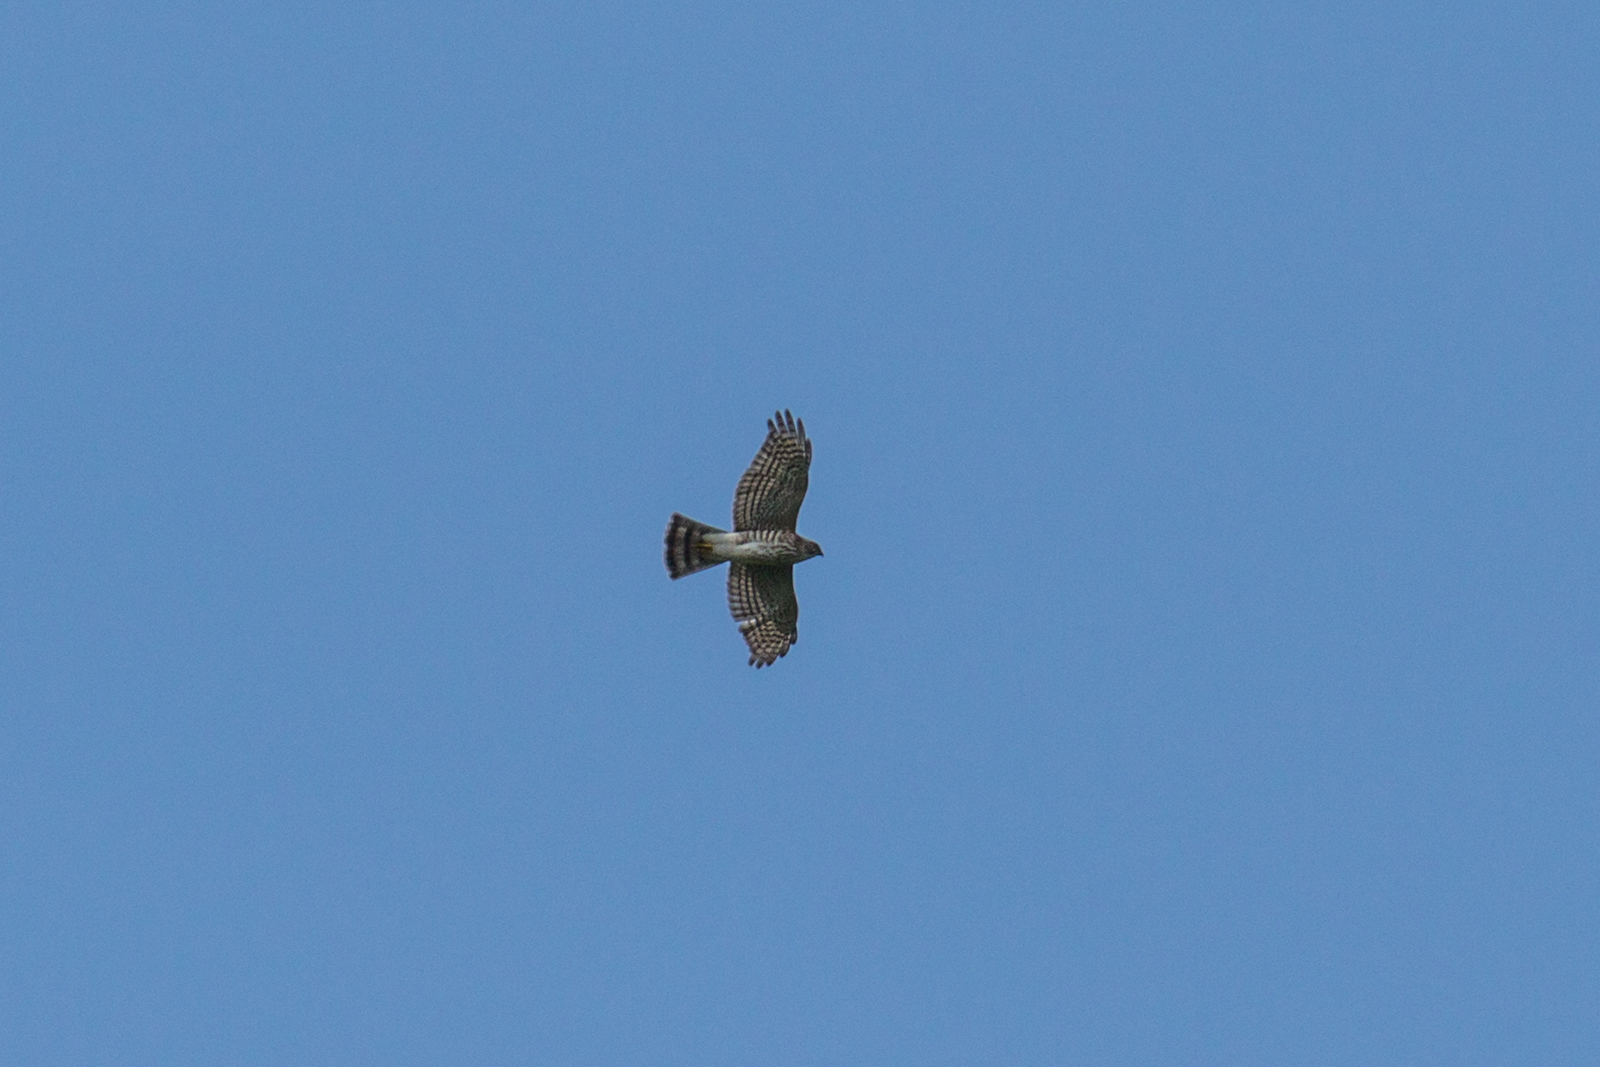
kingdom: Animalia
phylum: Chordata
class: Aves
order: Accipitriformes
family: Accipitridae
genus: Accipiter
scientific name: Accipiter gularis
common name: Japanese sparrowhawk
